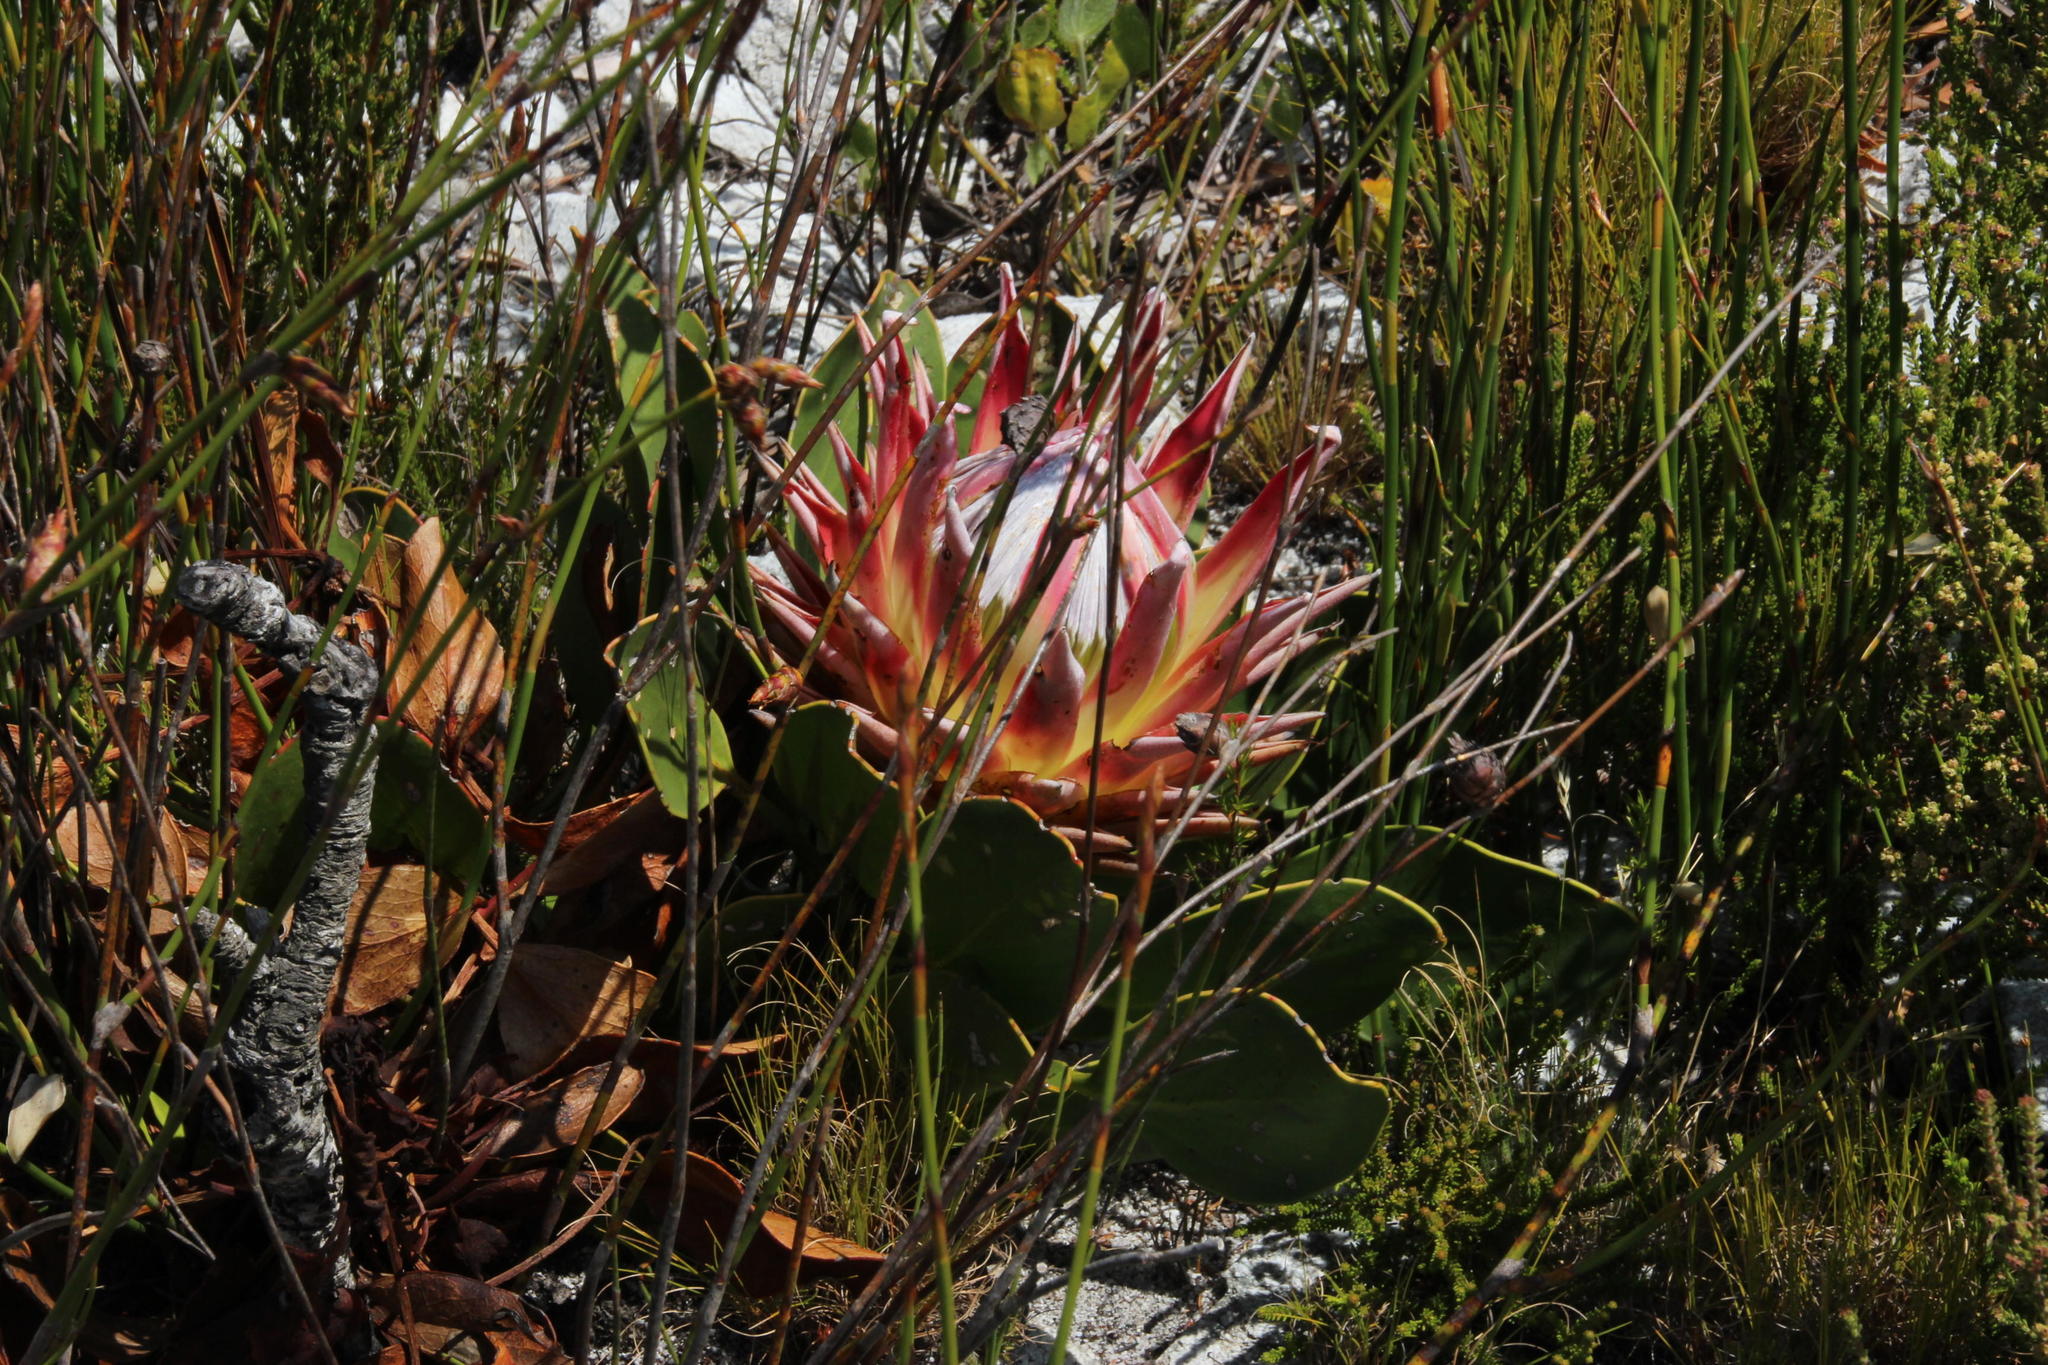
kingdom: Plantae
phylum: Tracheophyta
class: Magnoliopsida
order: Proteales
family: Proteaceae
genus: Protea
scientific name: Protea cynaroides
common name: King protea
